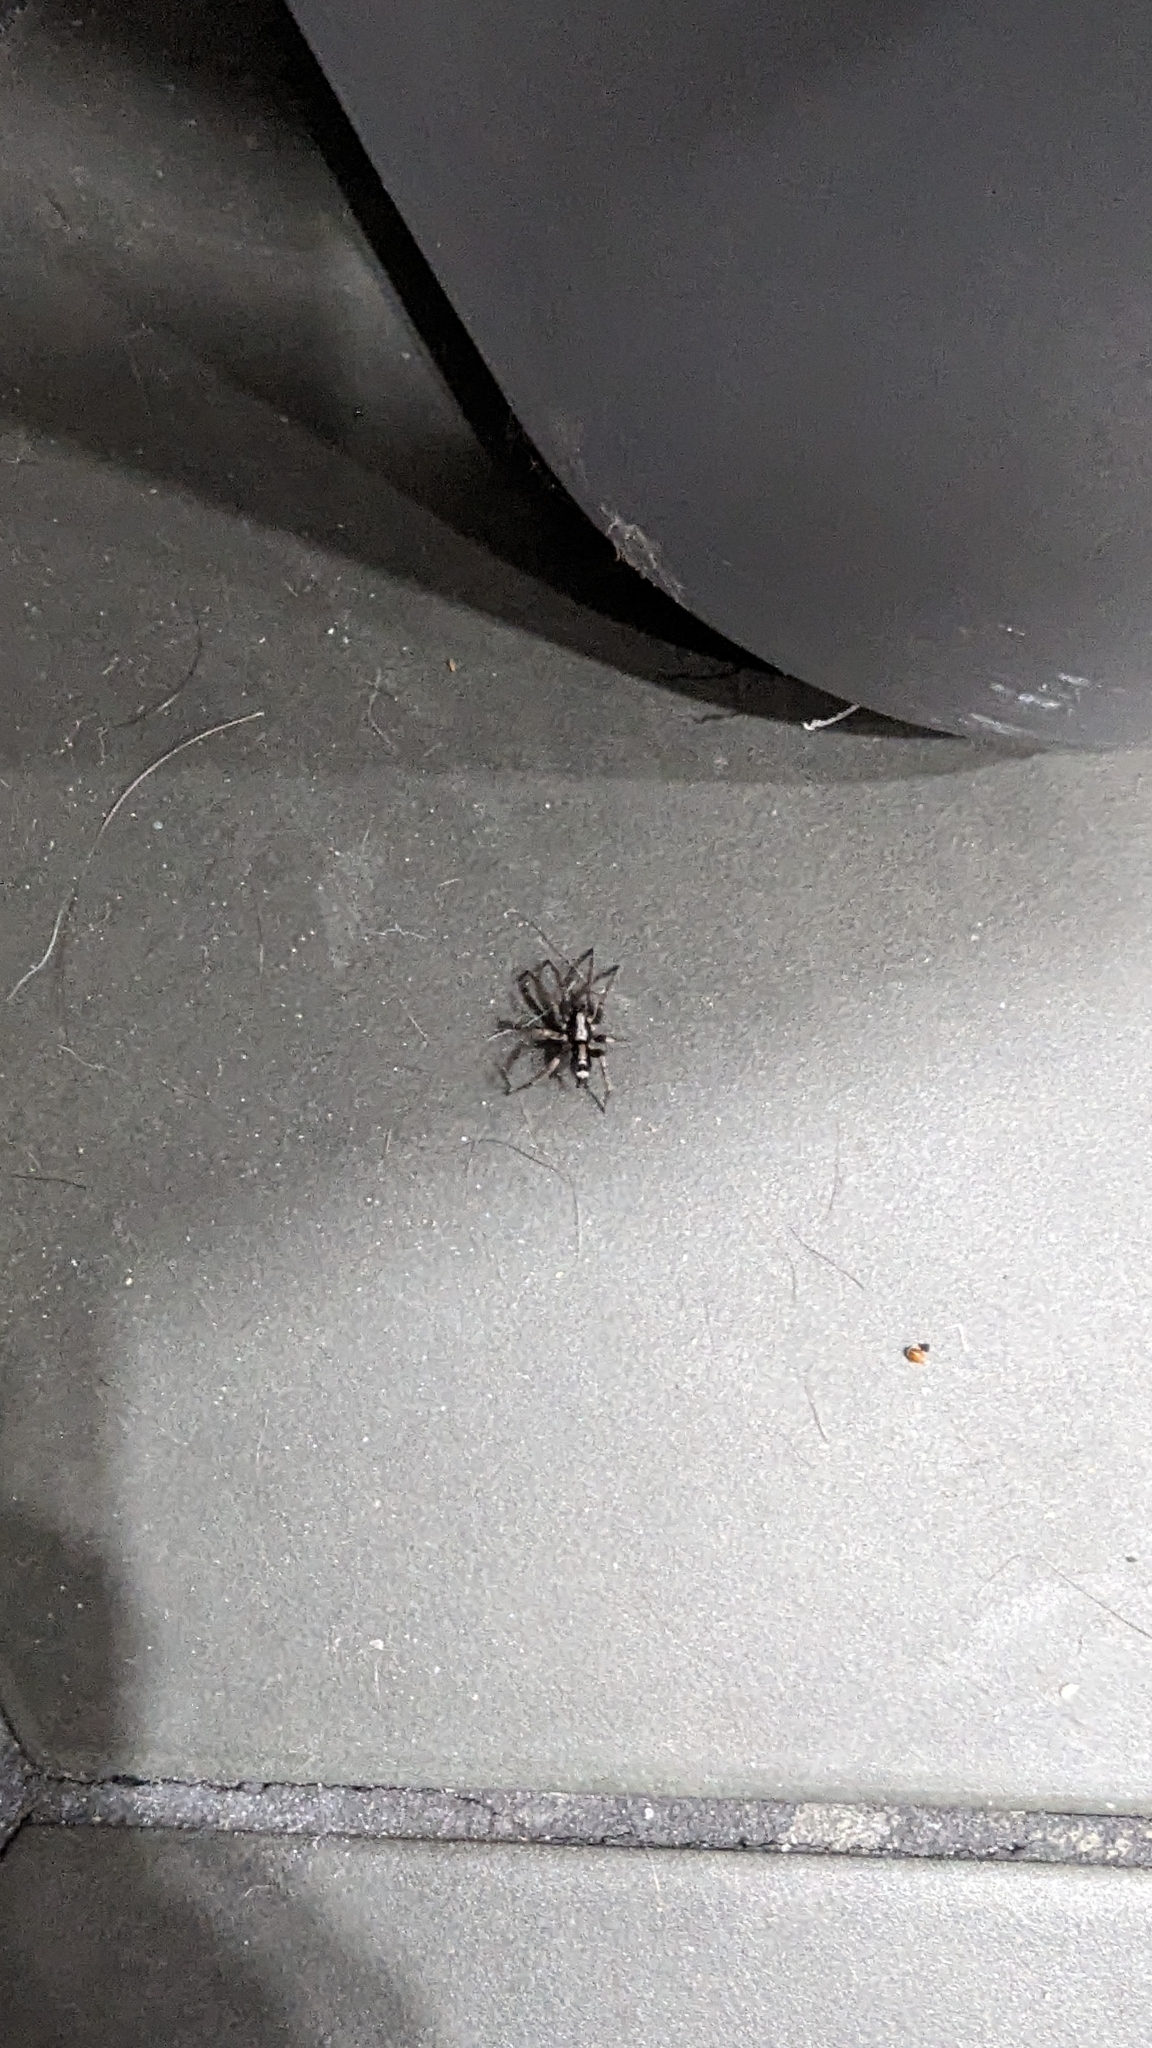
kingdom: Animalia
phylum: Arthropoda
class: Arachnida
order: Araneae
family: Gnaphosidae
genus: Herpyllus
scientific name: Herpyllus ecclesiasticus
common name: Eastern parson spider
